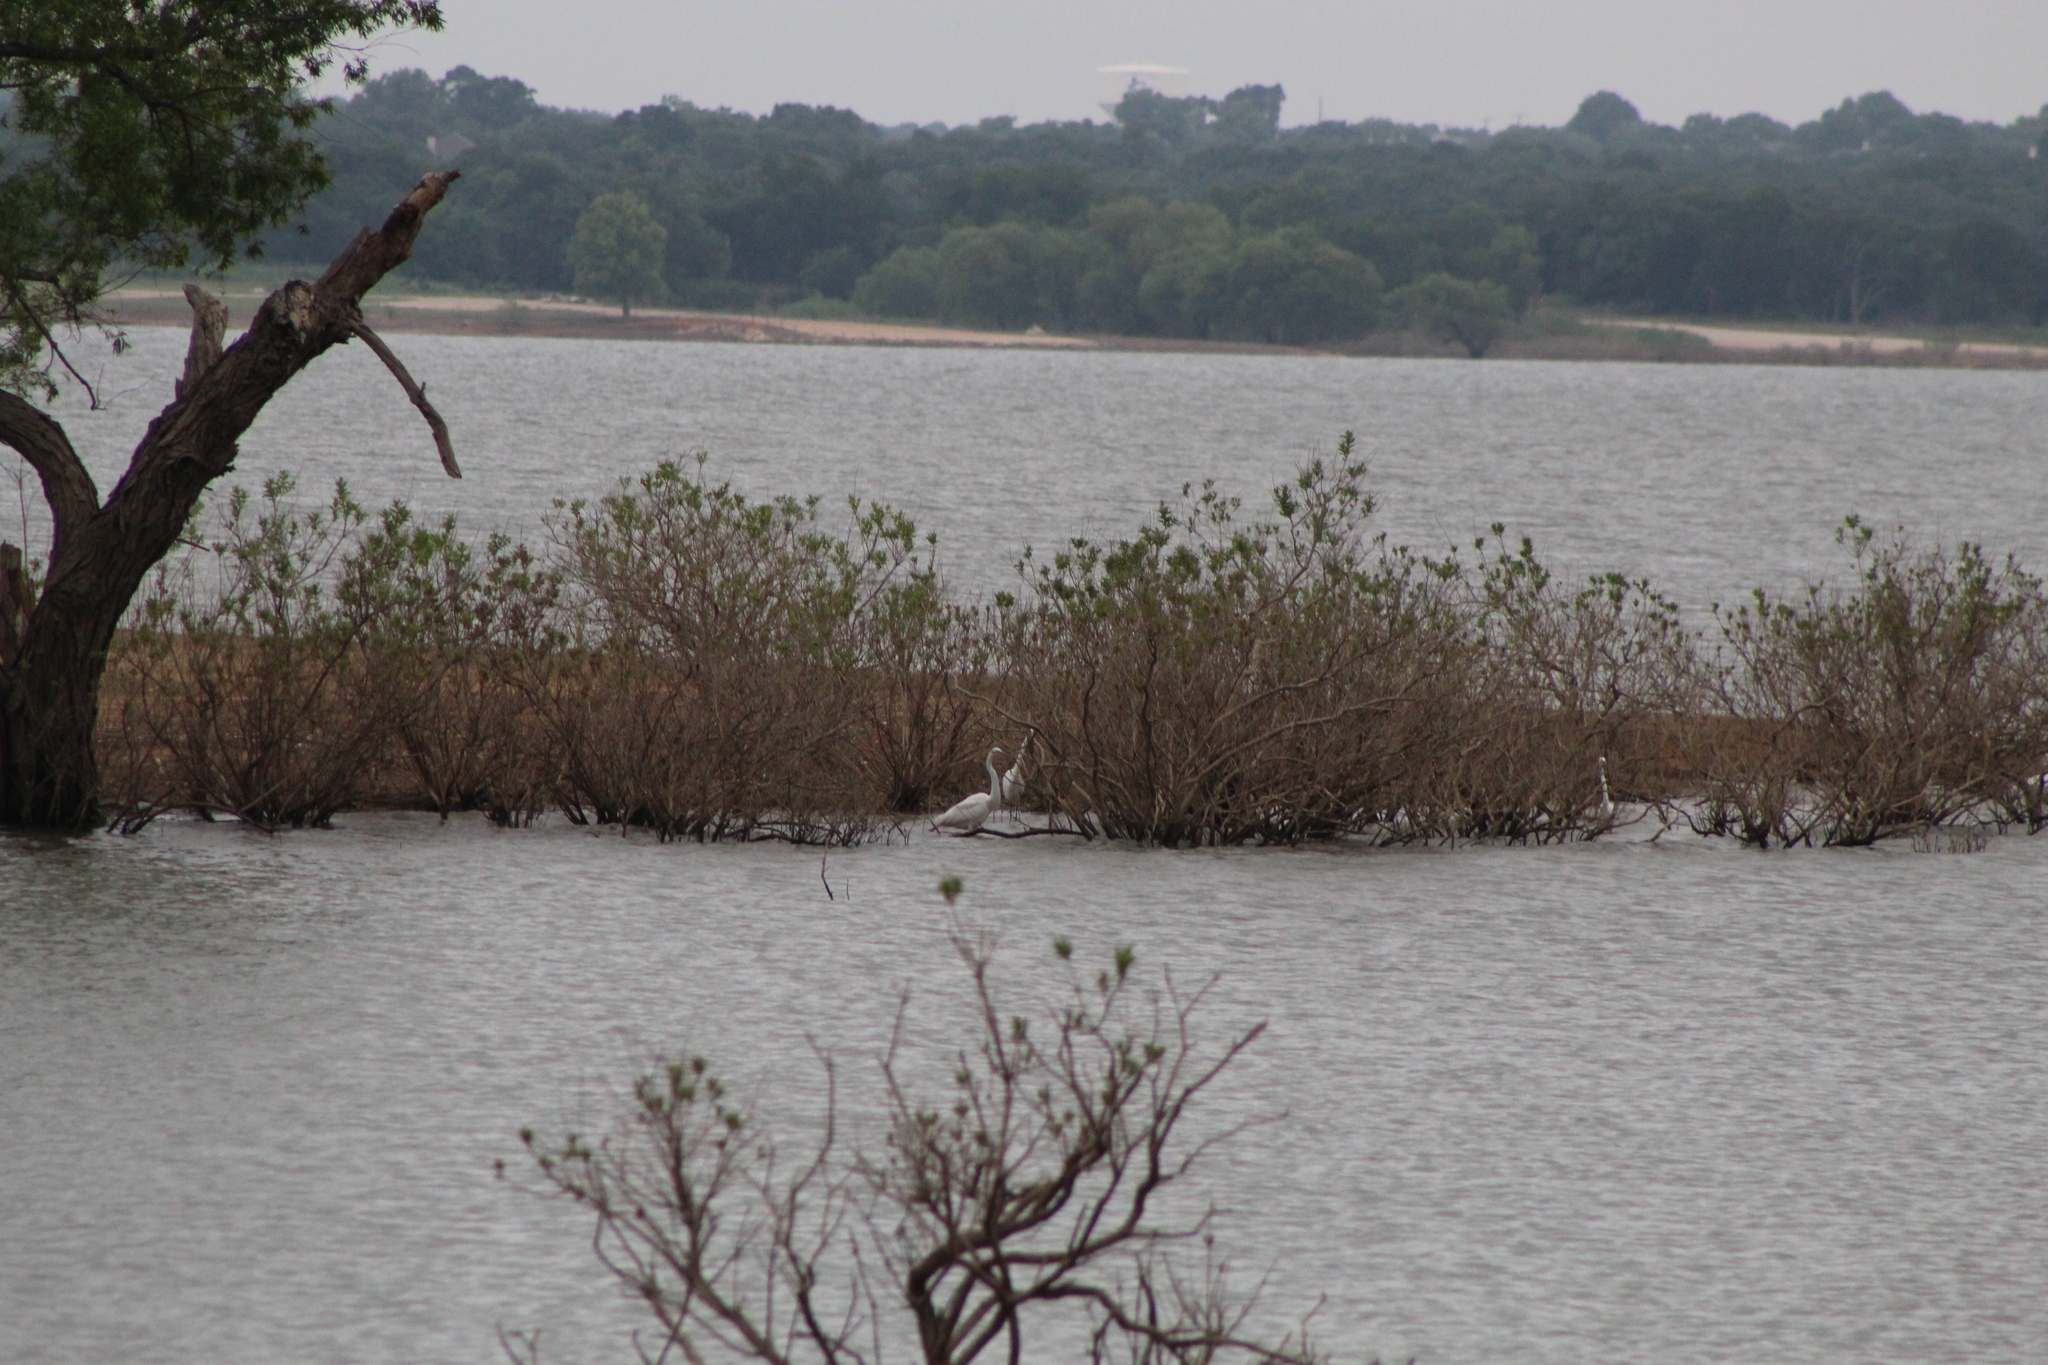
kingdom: Animalia
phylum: Chordata
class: Aves
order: Pelecaniformes
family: Ardeidae
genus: Ardea
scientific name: Ardea alba
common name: Great egret
